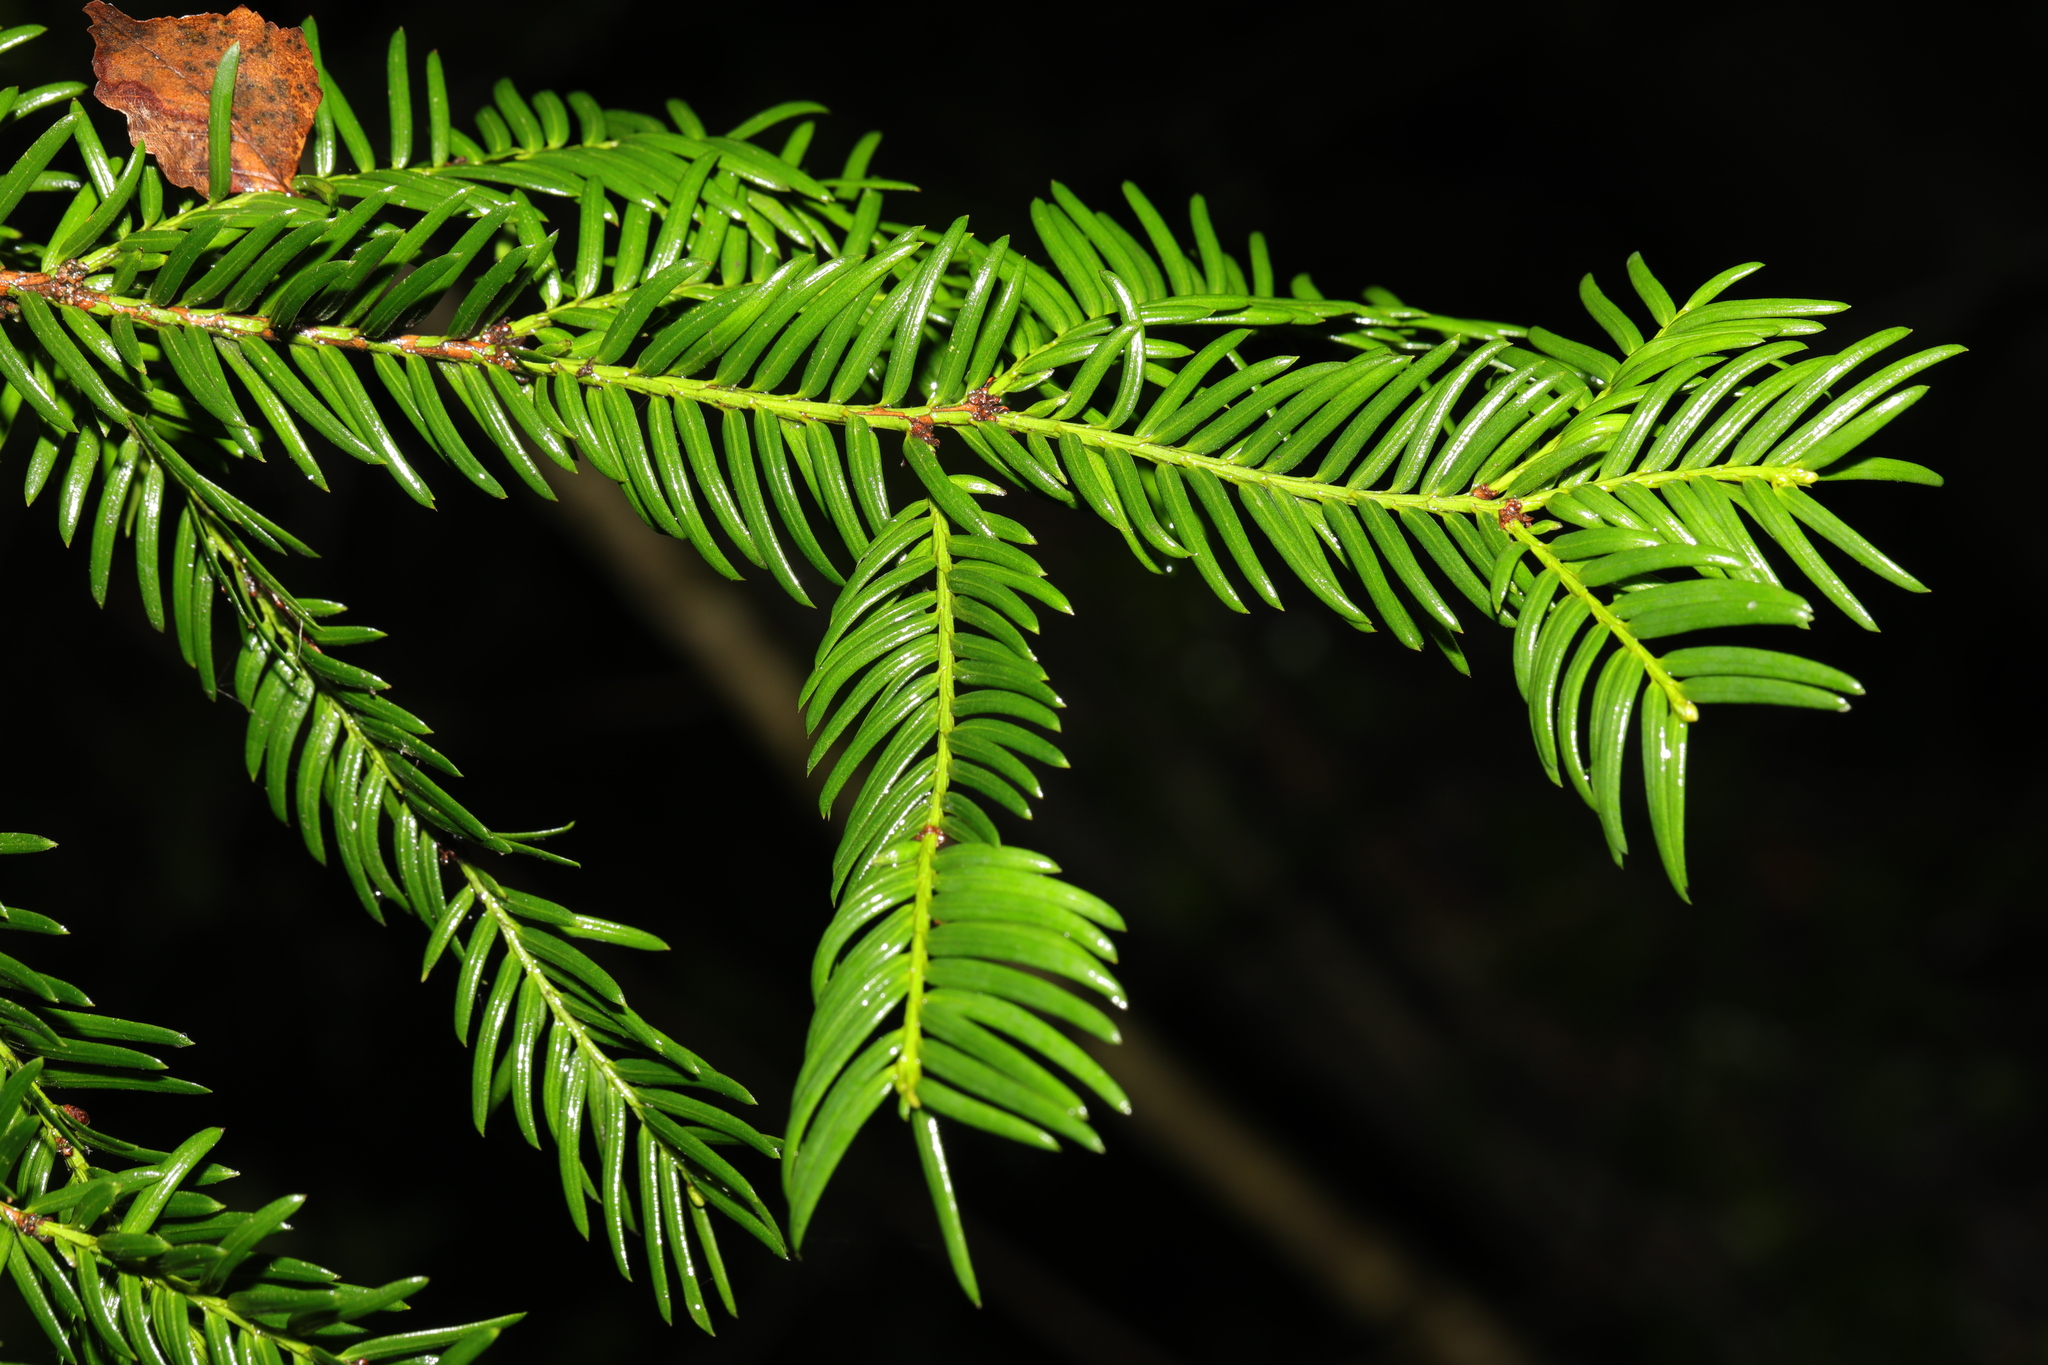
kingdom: Plantae
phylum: Tracheophyta
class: Pinopsida
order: Pinales
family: Taxaceae
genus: Taxus
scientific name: Taxus baccata
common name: Yew
